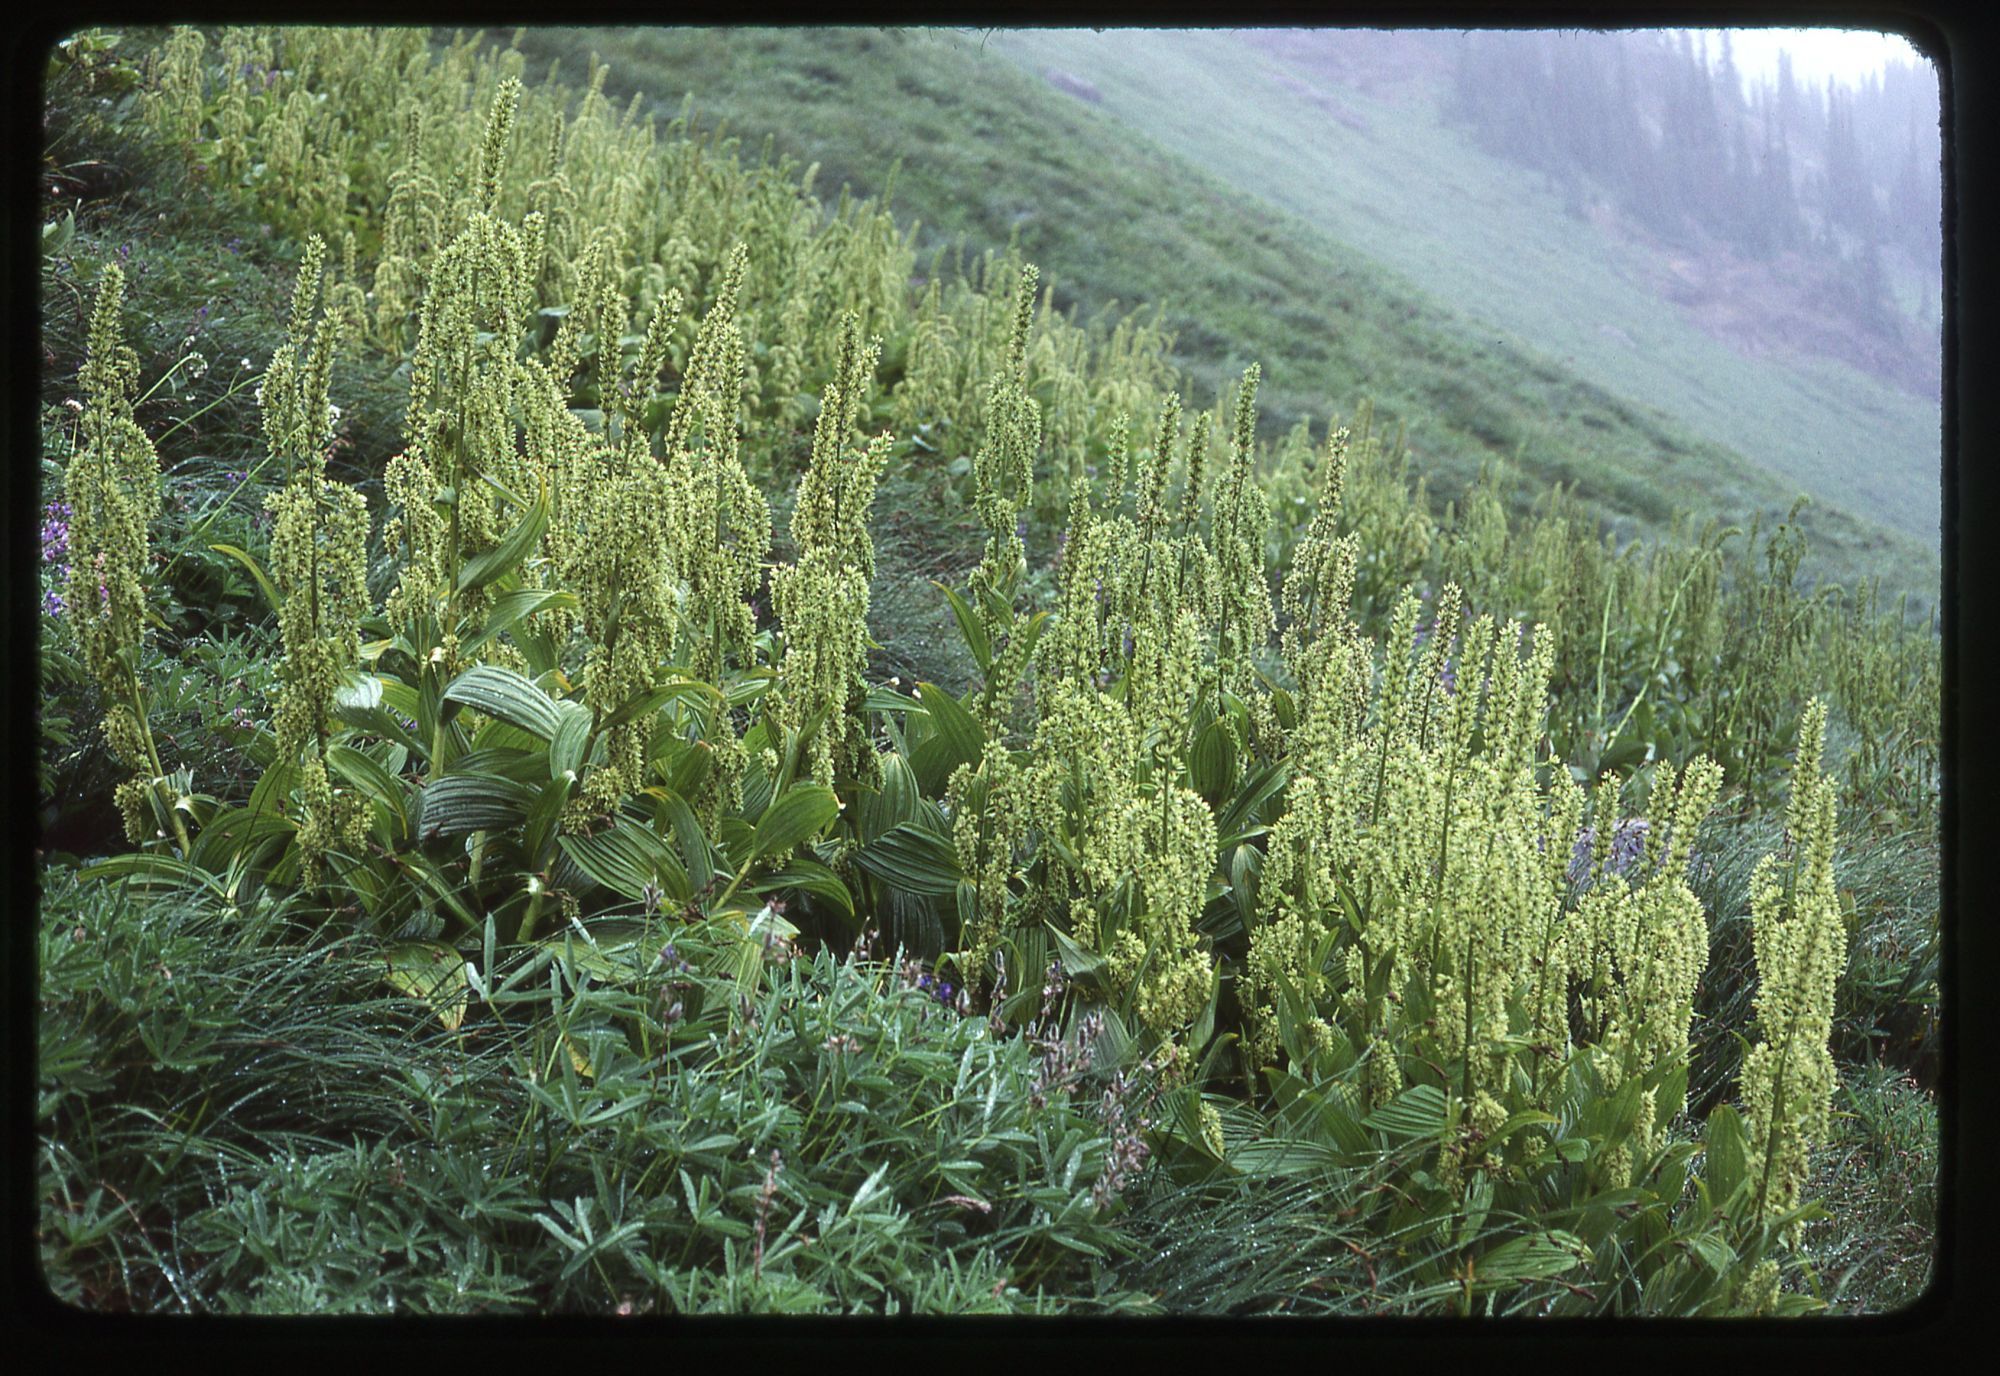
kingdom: Plantae
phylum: Tracheophyta
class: Liliopsida
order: Liliales
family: Melanthiaceae
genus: Veratrum
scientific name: Veratrum viride
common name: American false hellebore
